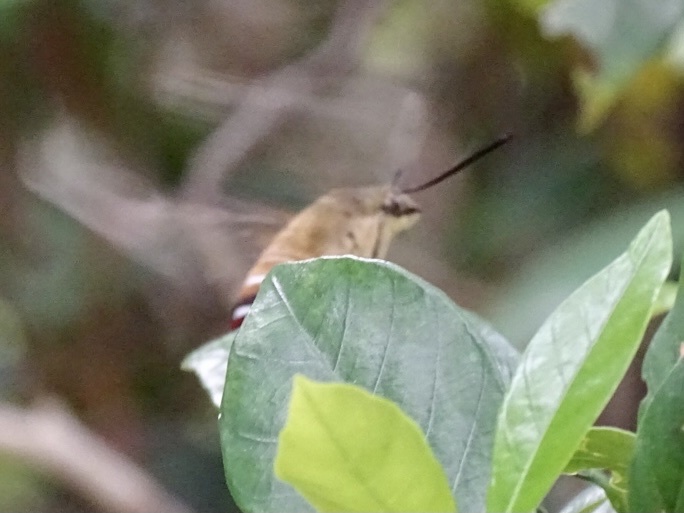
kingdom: Animalia
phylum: Arthropoda
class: Insecta
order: Lepidoptera
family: Sphingidae
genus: Cephonodes
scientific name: Cephonodes hylas
